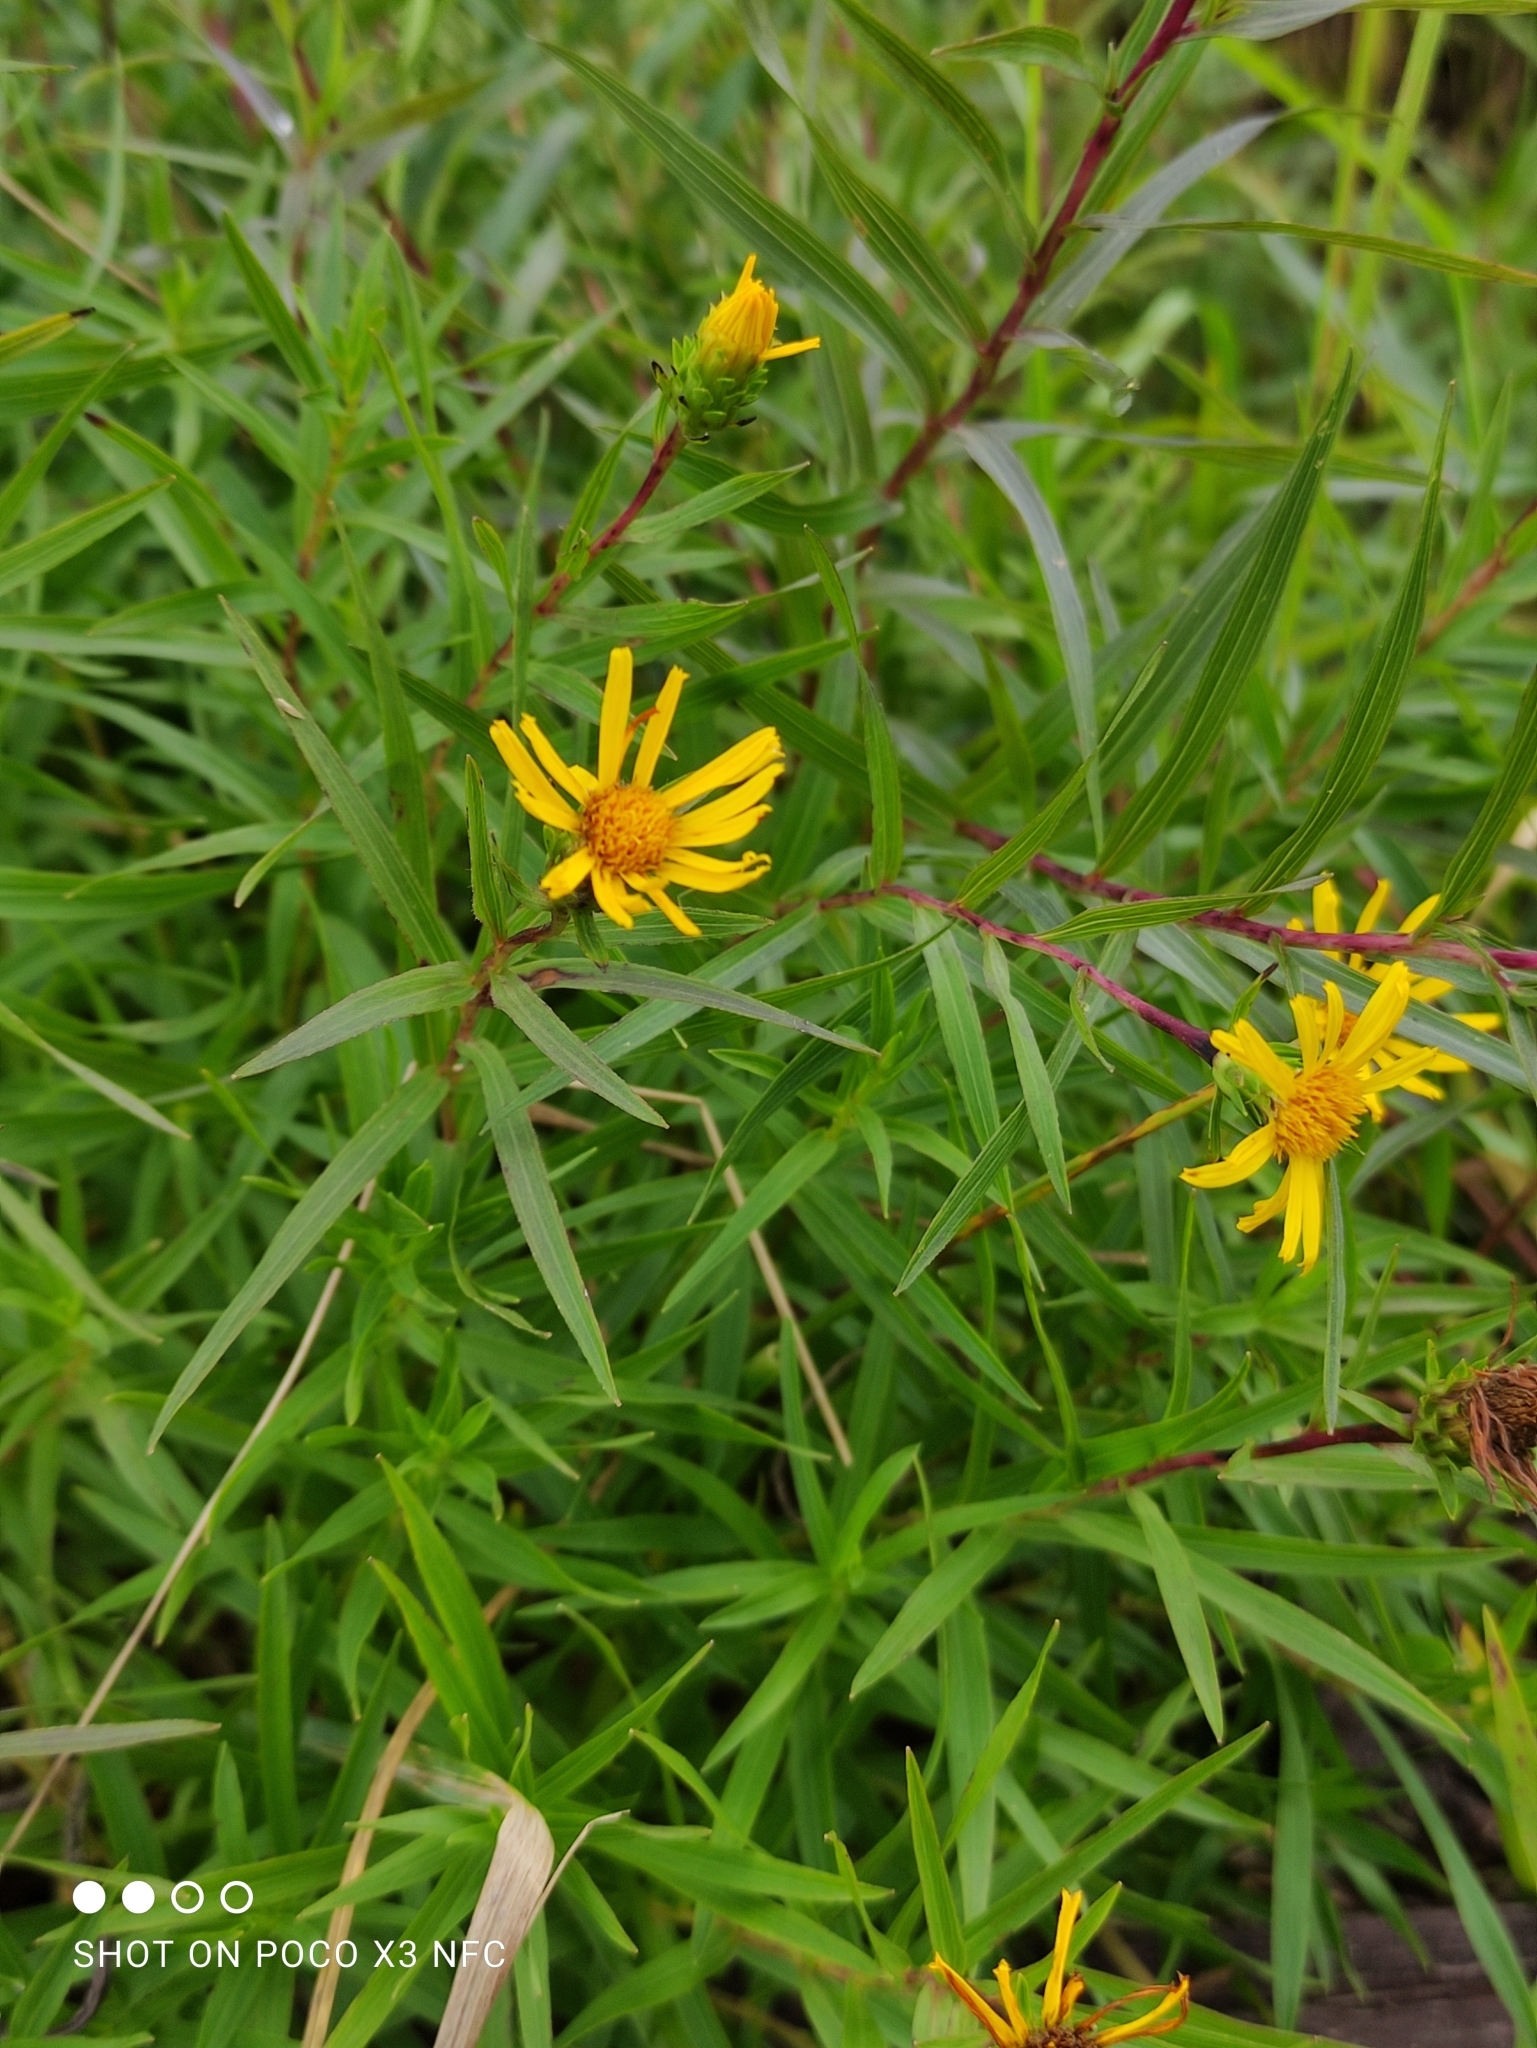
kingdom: Plantae
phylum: Tracheophyta
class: Magnoliopsida
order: Asterales
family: Asteraceae
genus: Pentanema
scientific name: Pentanema salicinum
